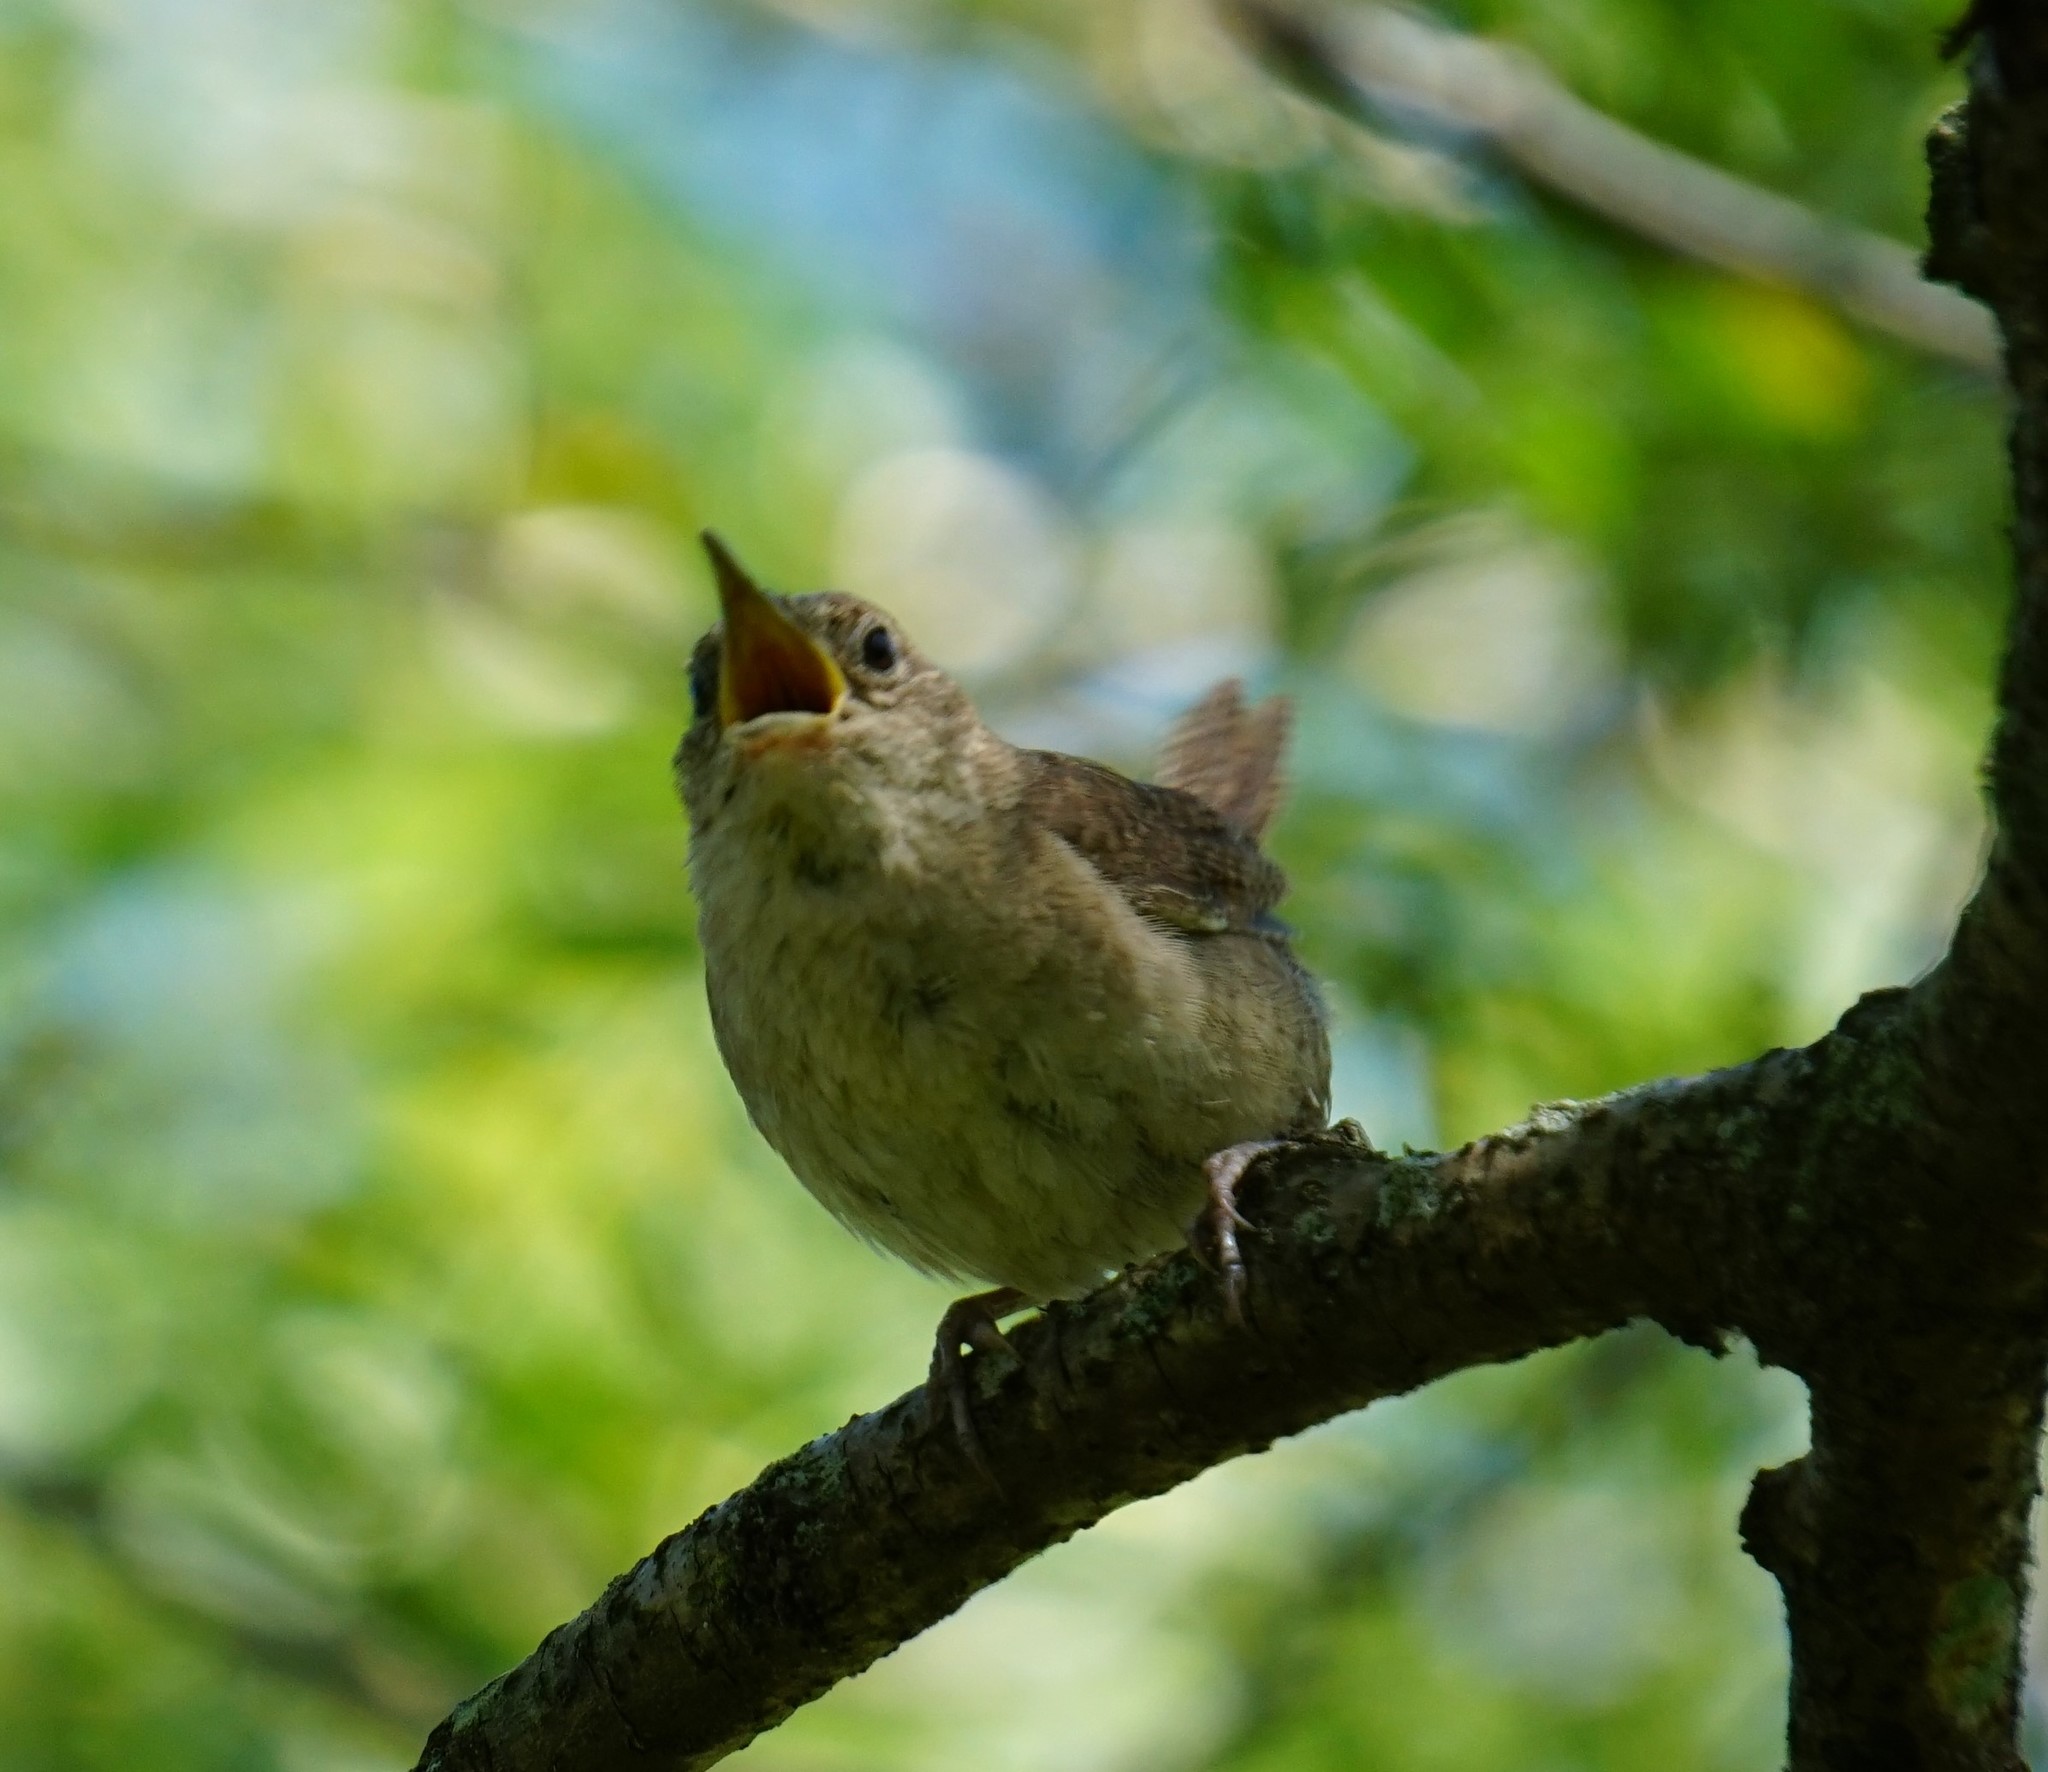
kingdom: Animalia
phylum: Chordata
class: Aves
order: Passeriformes
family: Troglodytidae
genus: Troglodytes
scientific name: Troglodytes aedon
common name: House wren
